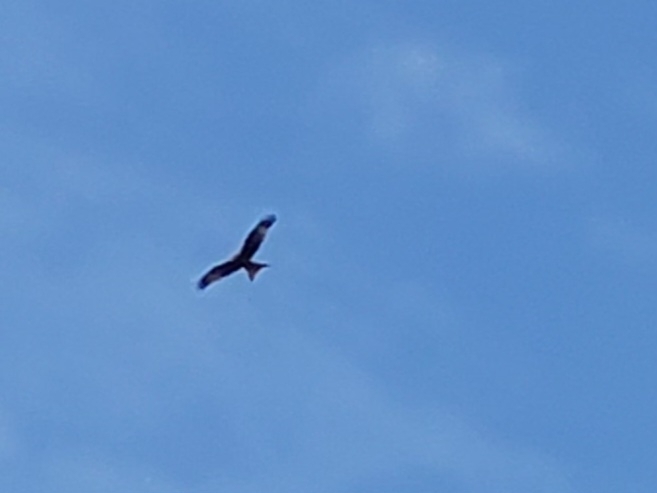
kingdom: Animalia
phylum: Chordata
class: Aves
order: Accipitriformes
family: Accipitridae
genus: Milvus
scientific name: Milvus milvus
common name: Red kite
